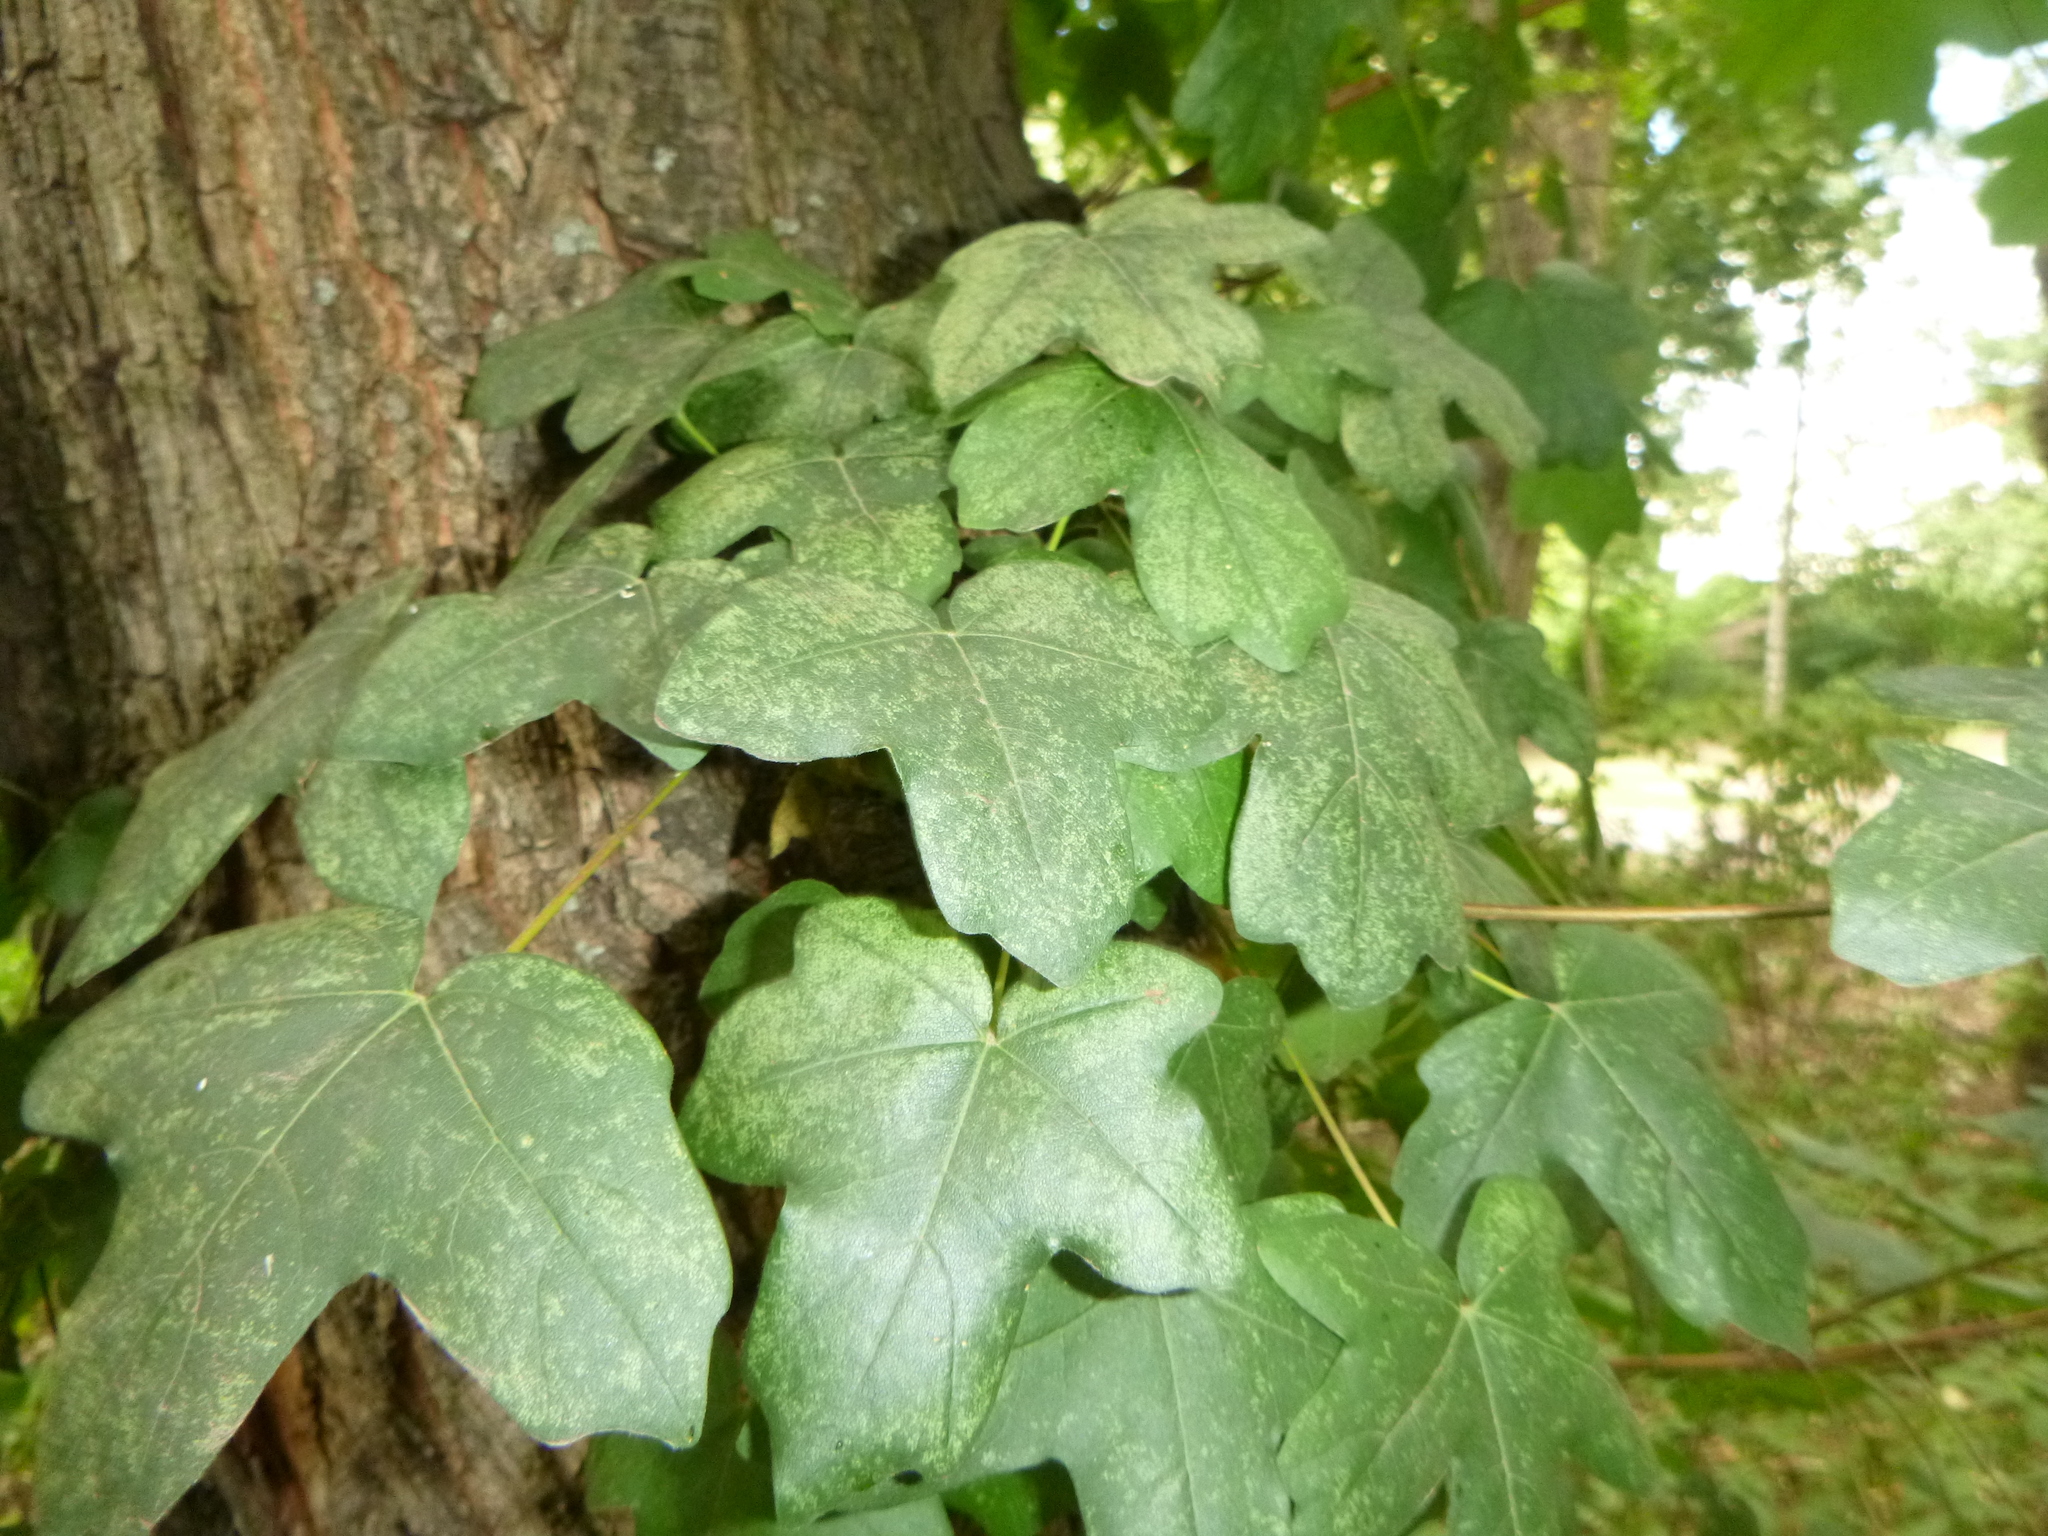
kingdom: Plantae
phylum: Tracheophyta
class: Magnoliopsida
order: Sapindales
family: Sapindaceae
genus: Acer
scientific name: Acer campestre
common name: Field maple
